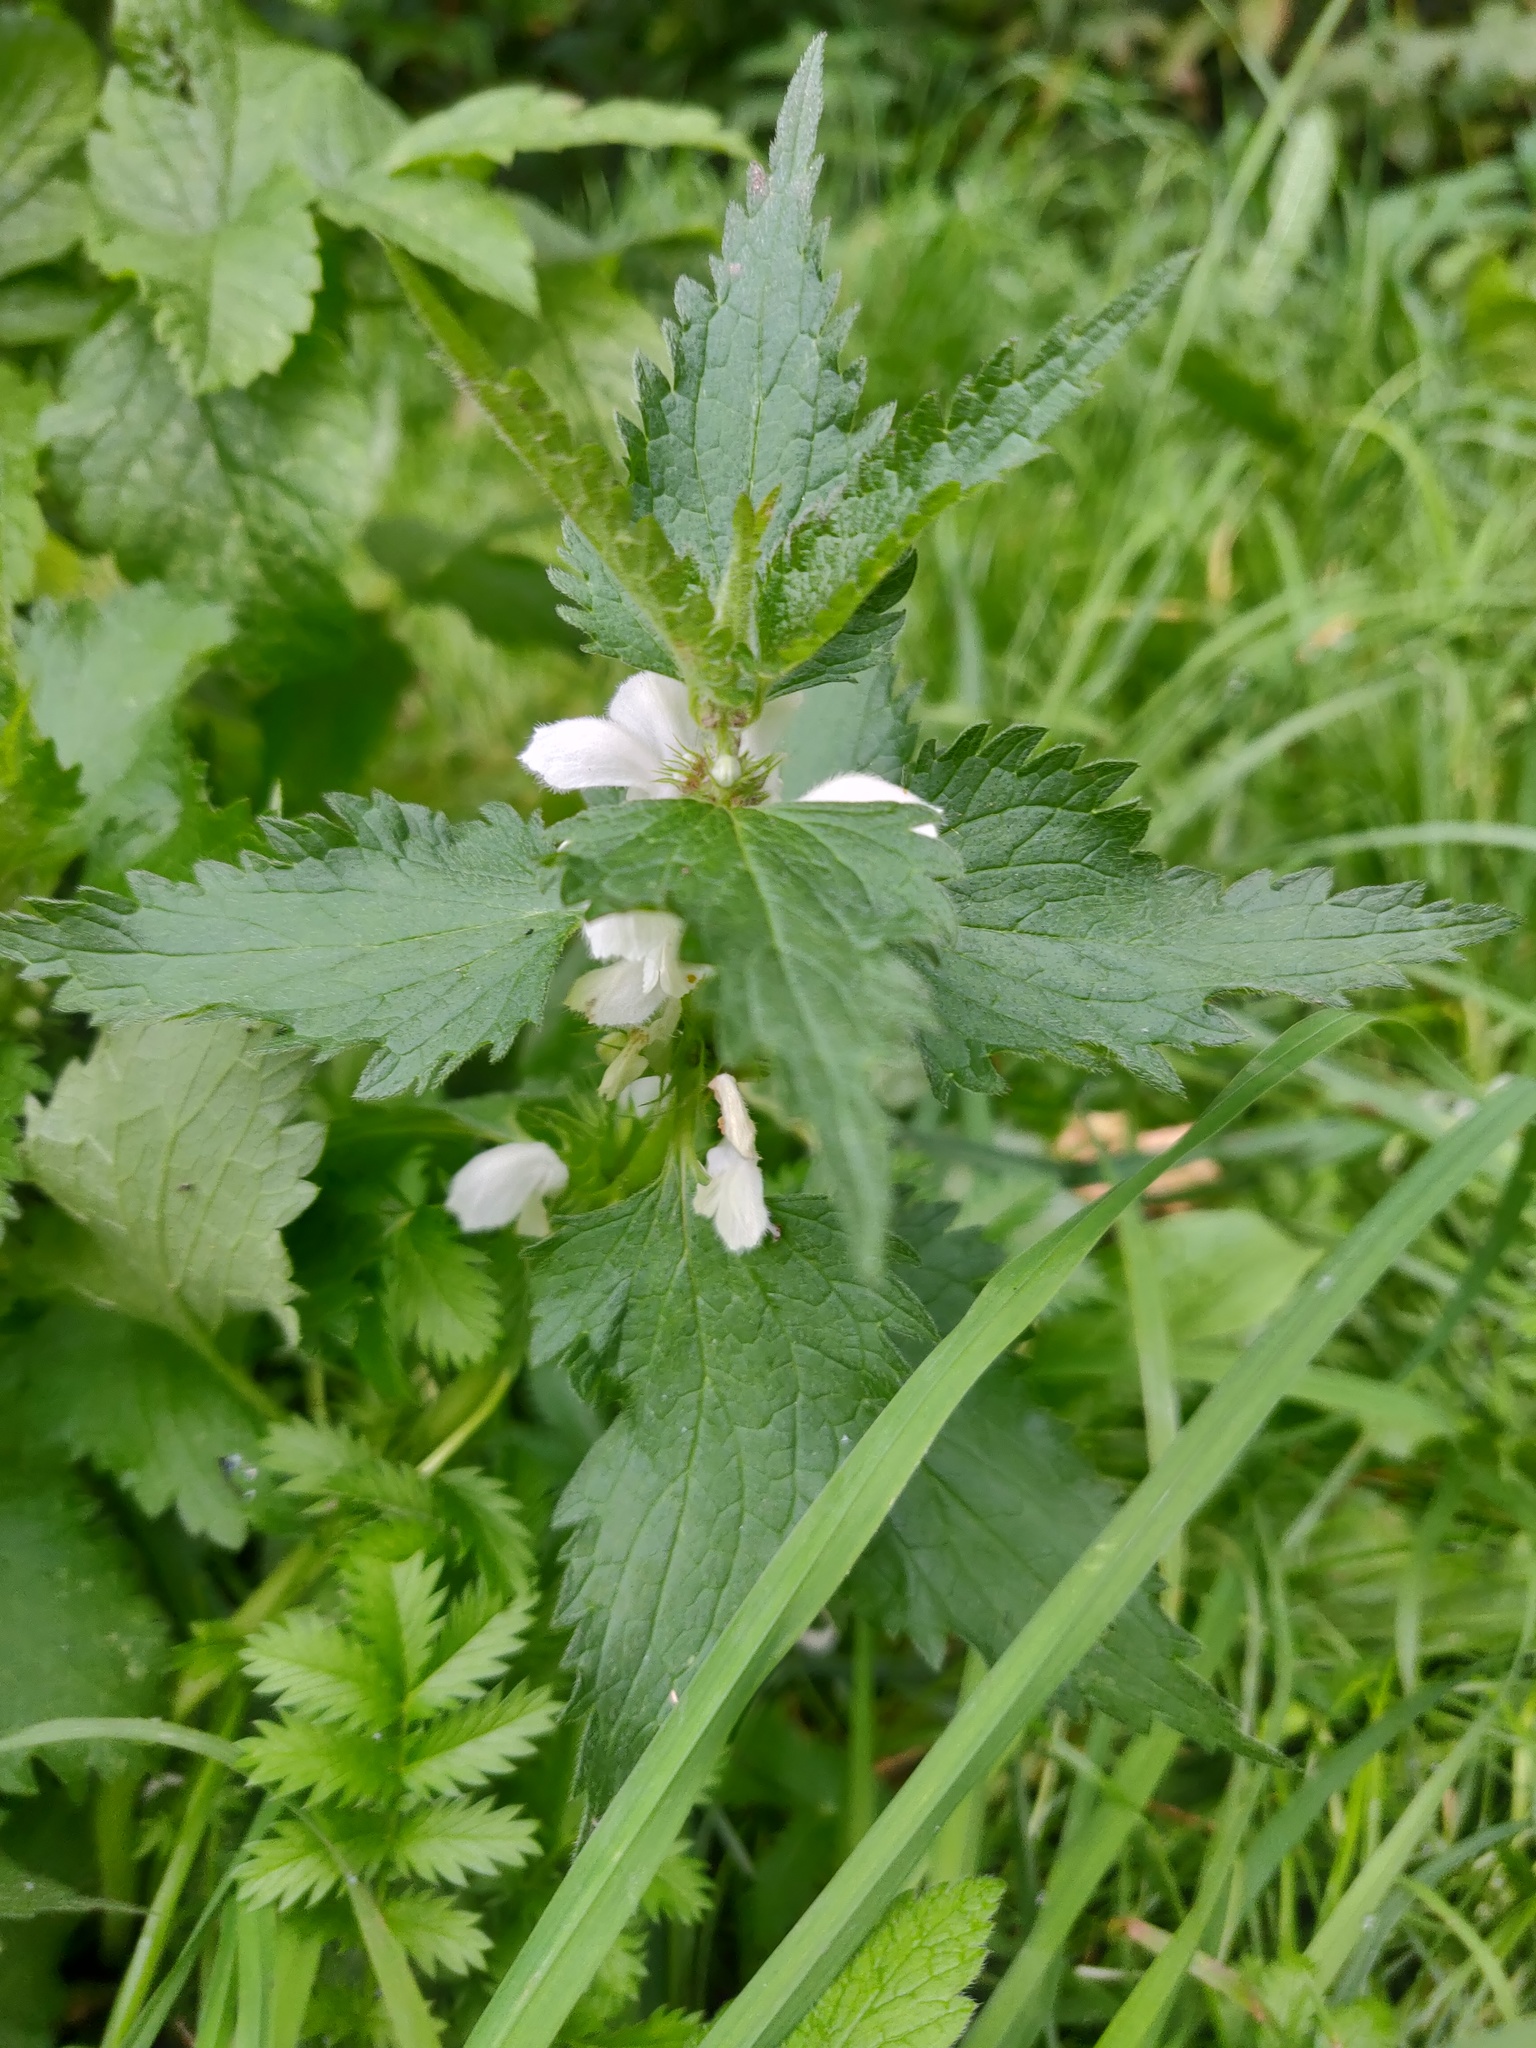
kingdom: Plantae
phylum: Tracheophyta
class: Magnoliopsida
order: Lamiales
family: Lamiaceae
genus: Lamium
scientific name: Lamium album
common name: White dead-nettle
